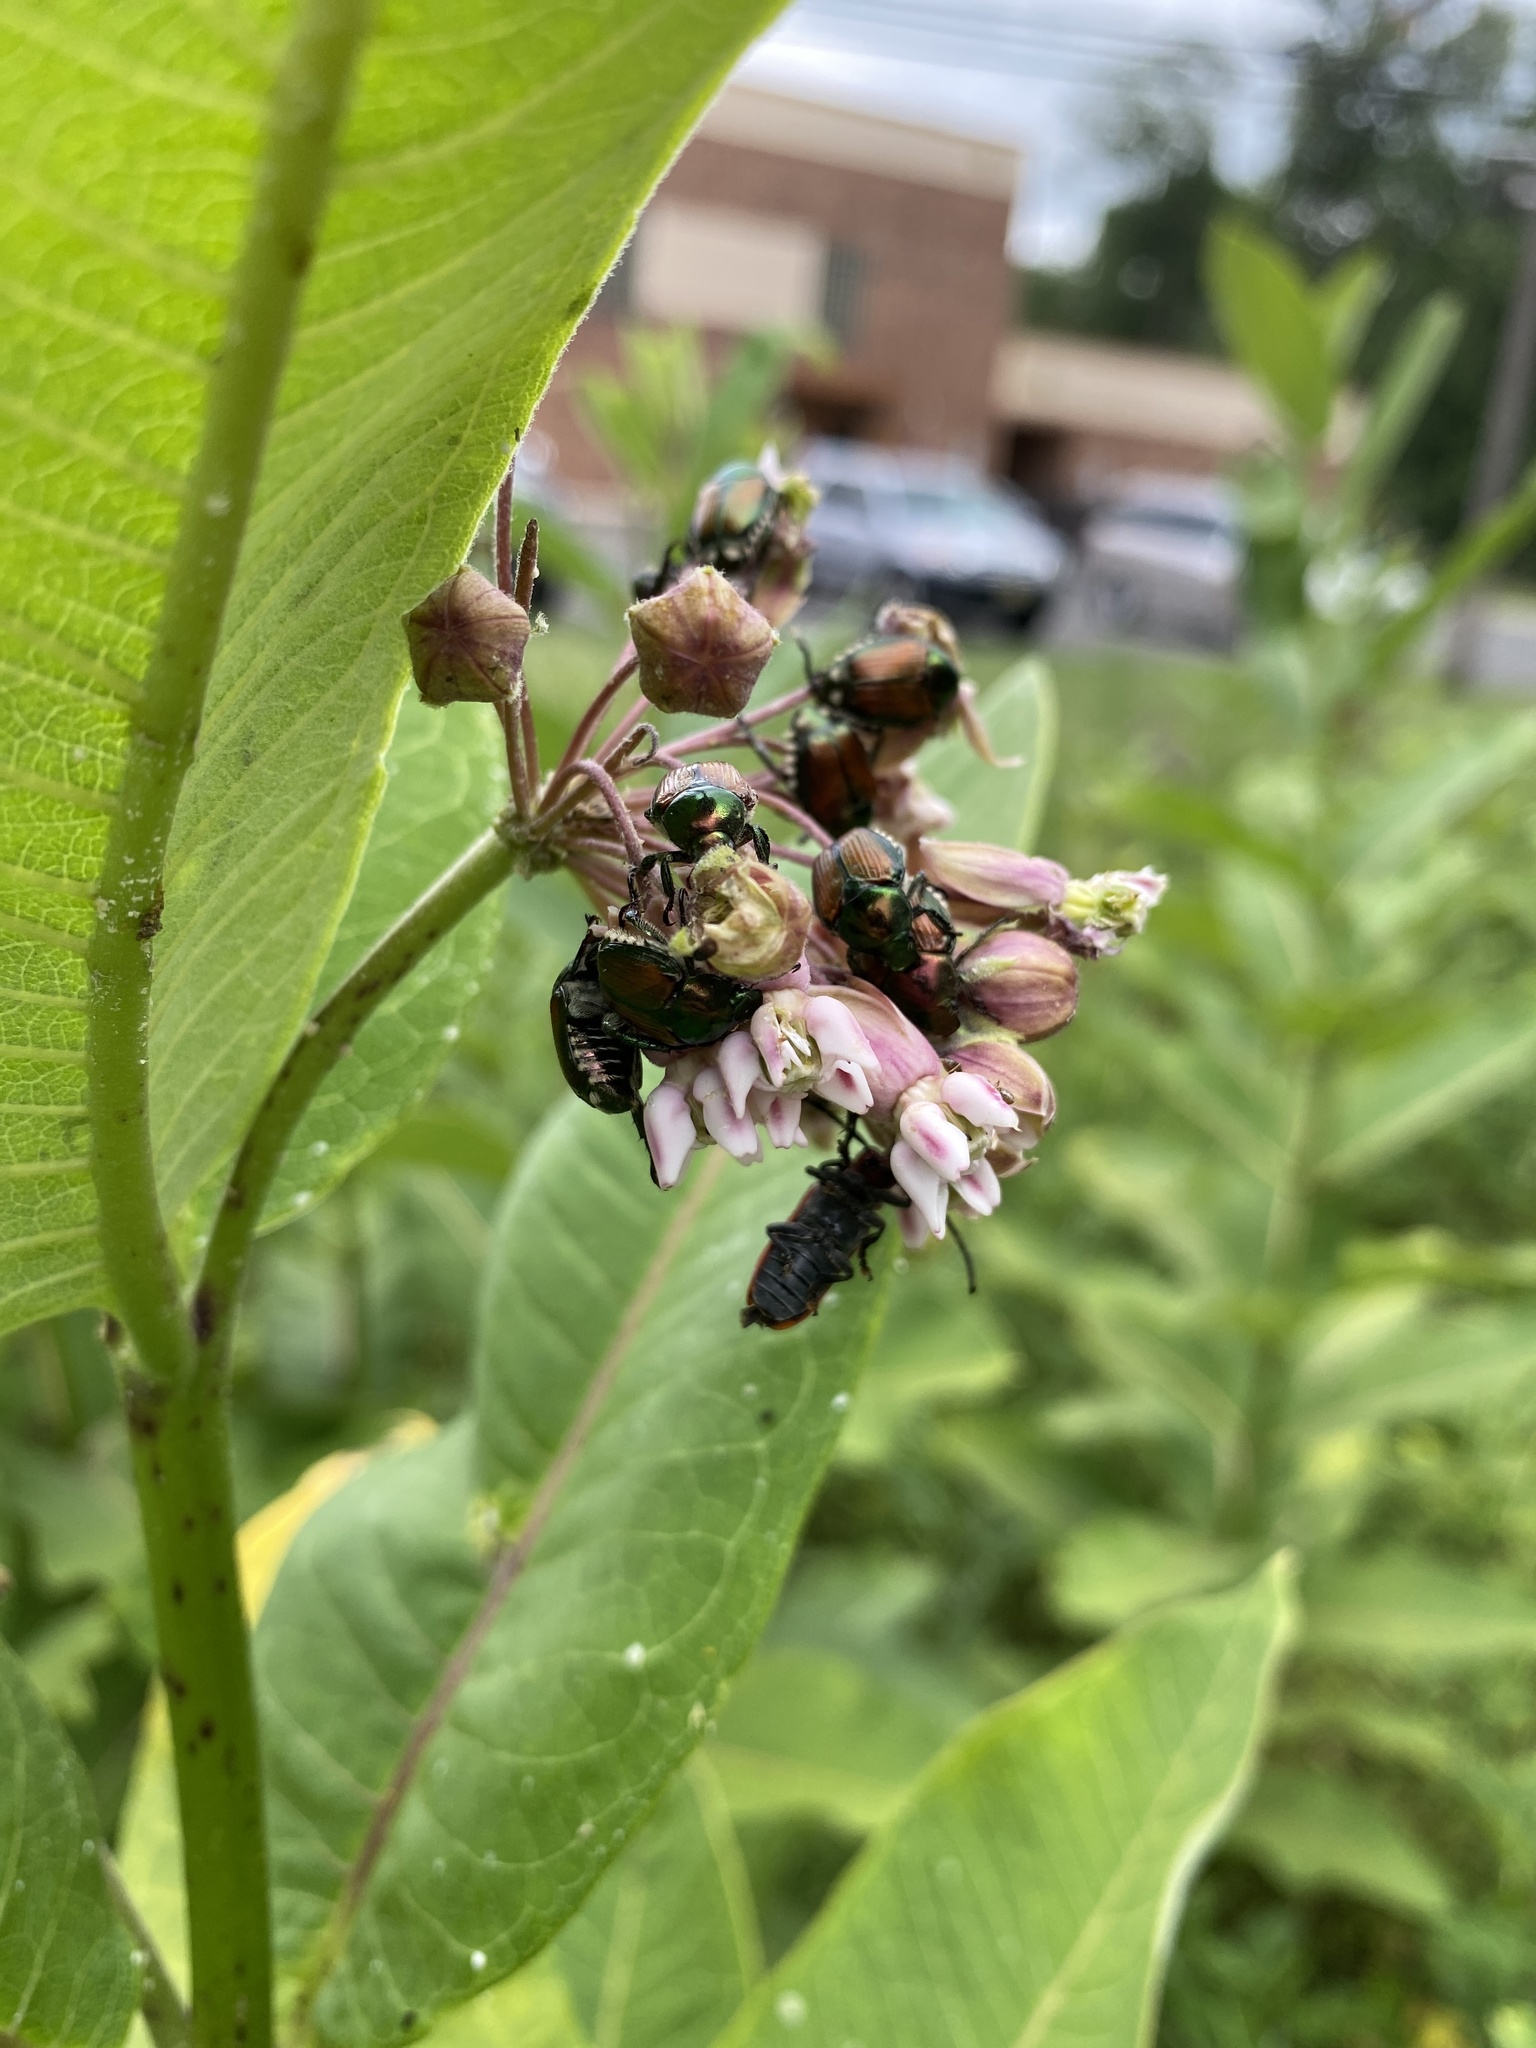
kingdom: Animalia
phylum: Arthropoda
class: Insecta
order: Coleoptera
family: Scarabaeidae
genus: Popillia
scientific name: Popillia japonica
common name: Japanese beetle
